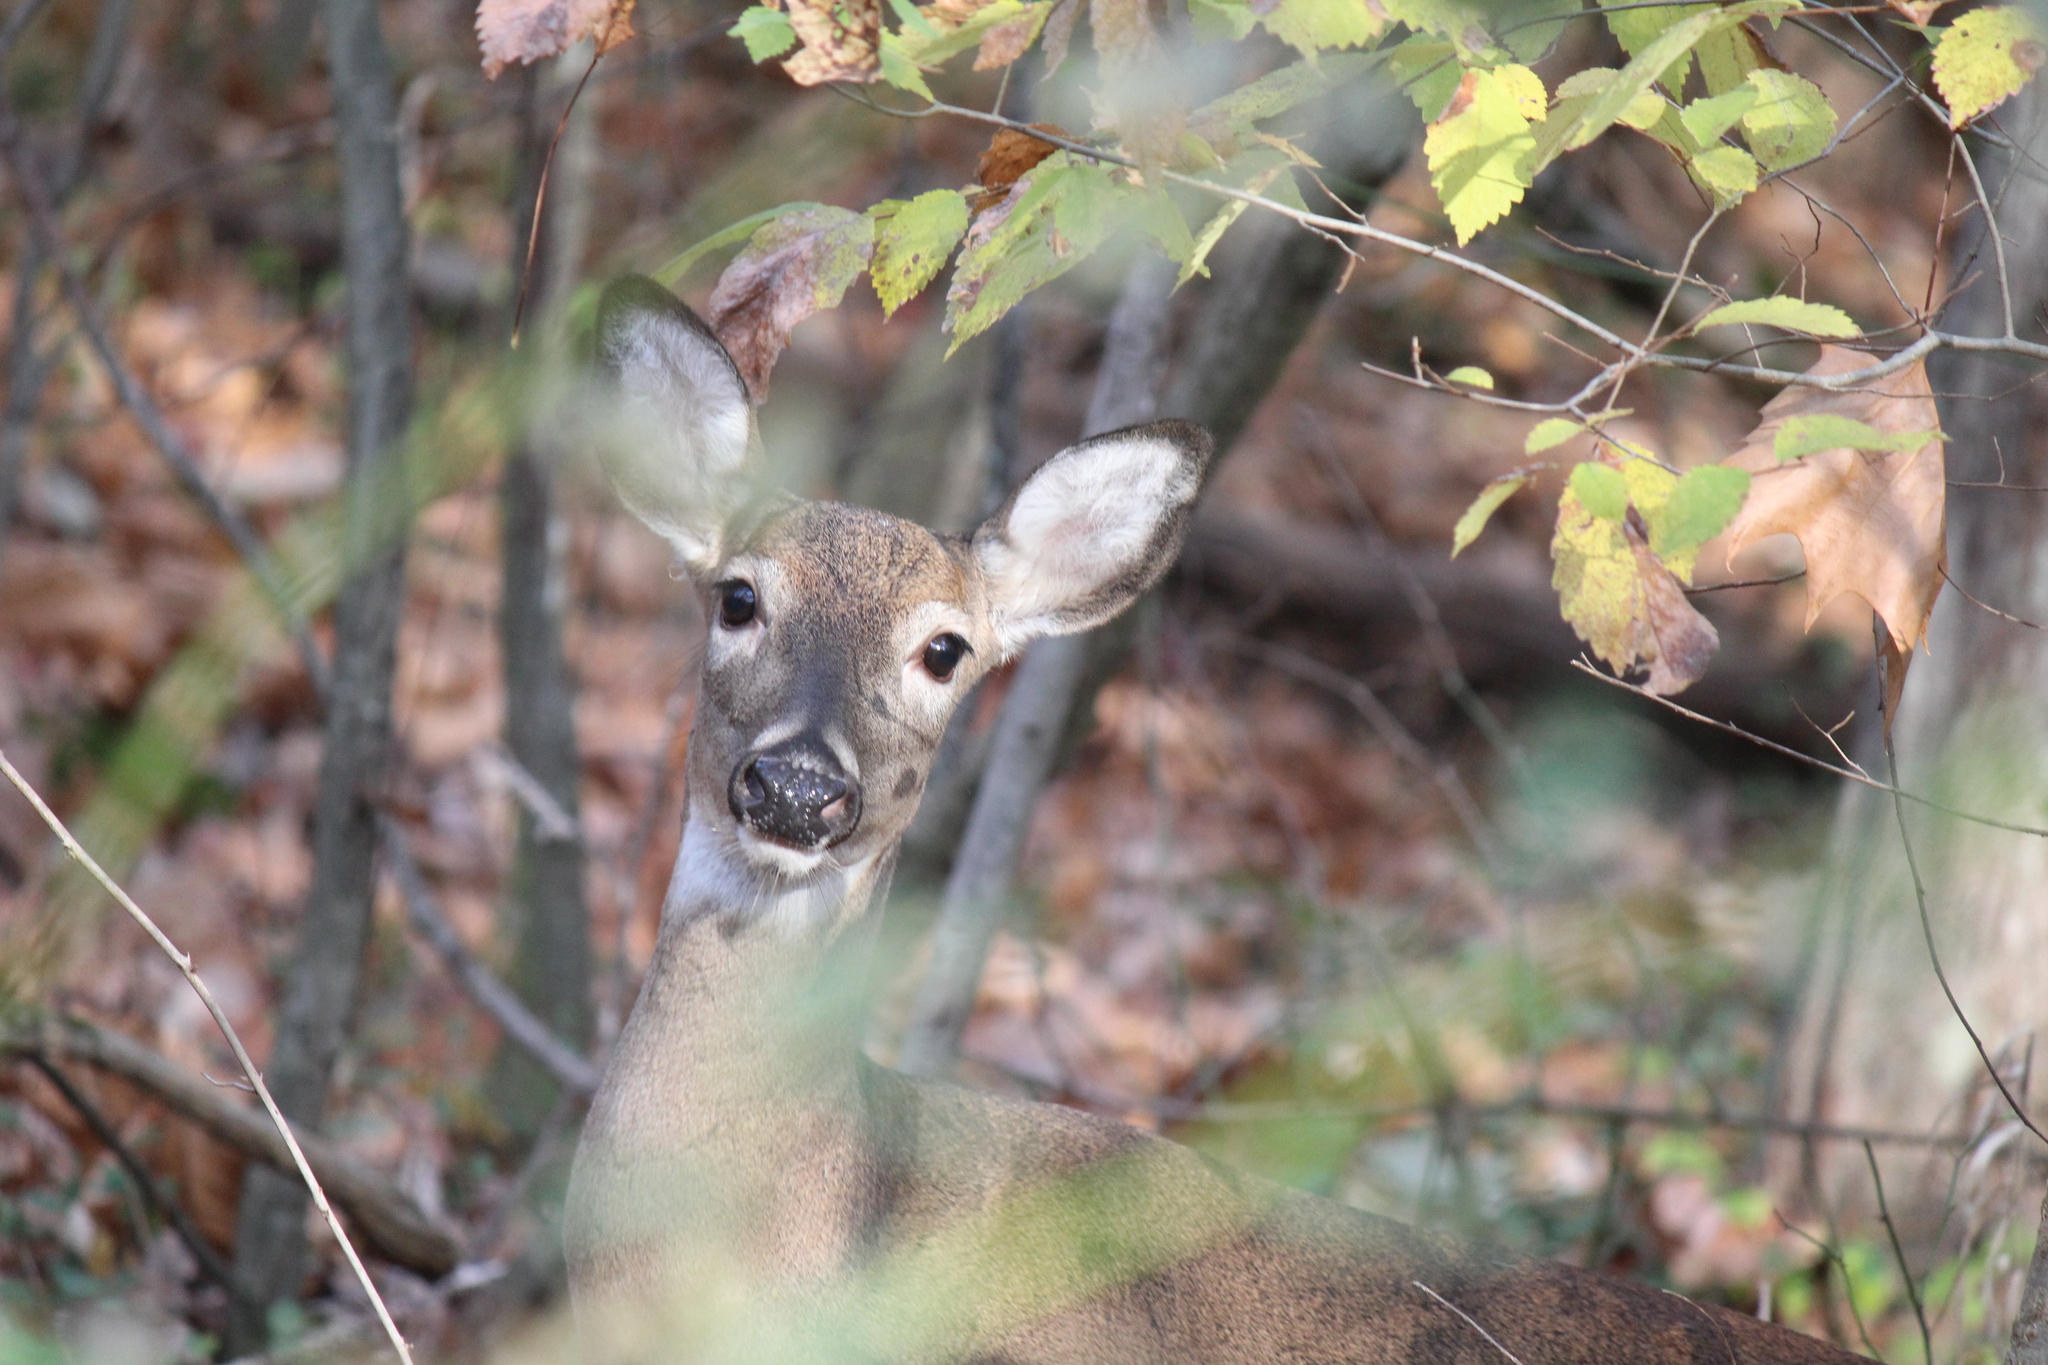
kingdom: Animalia
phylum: Chordata
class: Mammalia
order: Artiodactyla
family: Cervidae
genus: Odocoileus
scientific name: Odocoileus virginianus
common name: White-tailed deer
